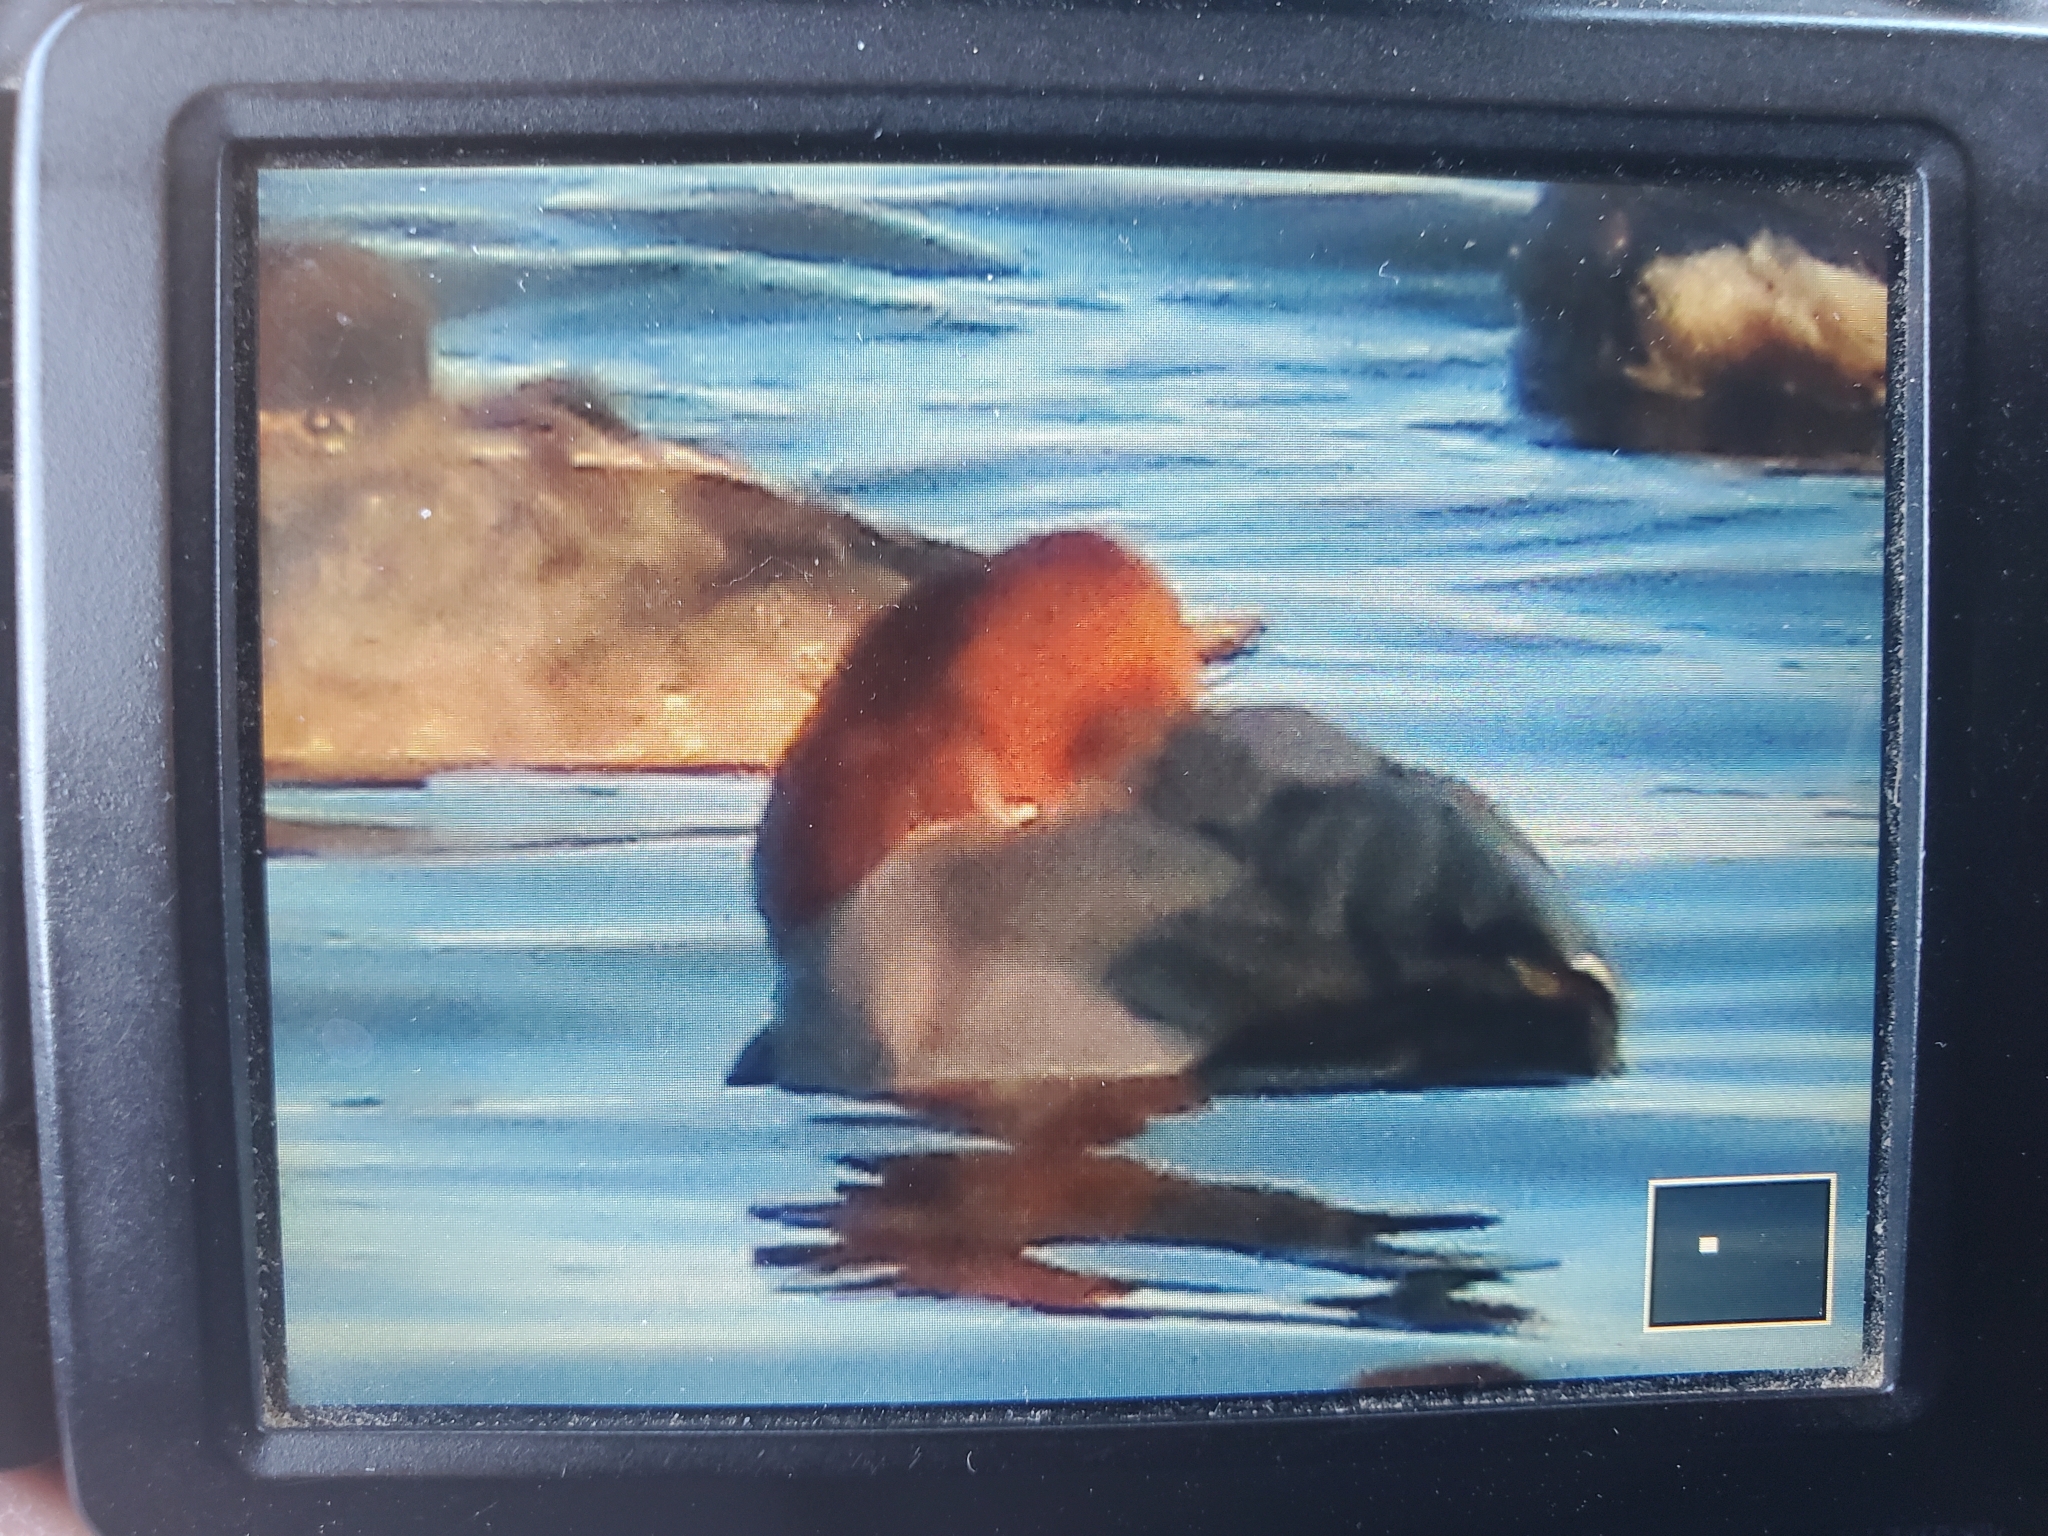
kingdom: Animalia
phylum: Chordata
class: Aves
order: Anseriformes
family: Anatidae
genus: Aythya
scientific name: Aythya americana
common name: Redhead
